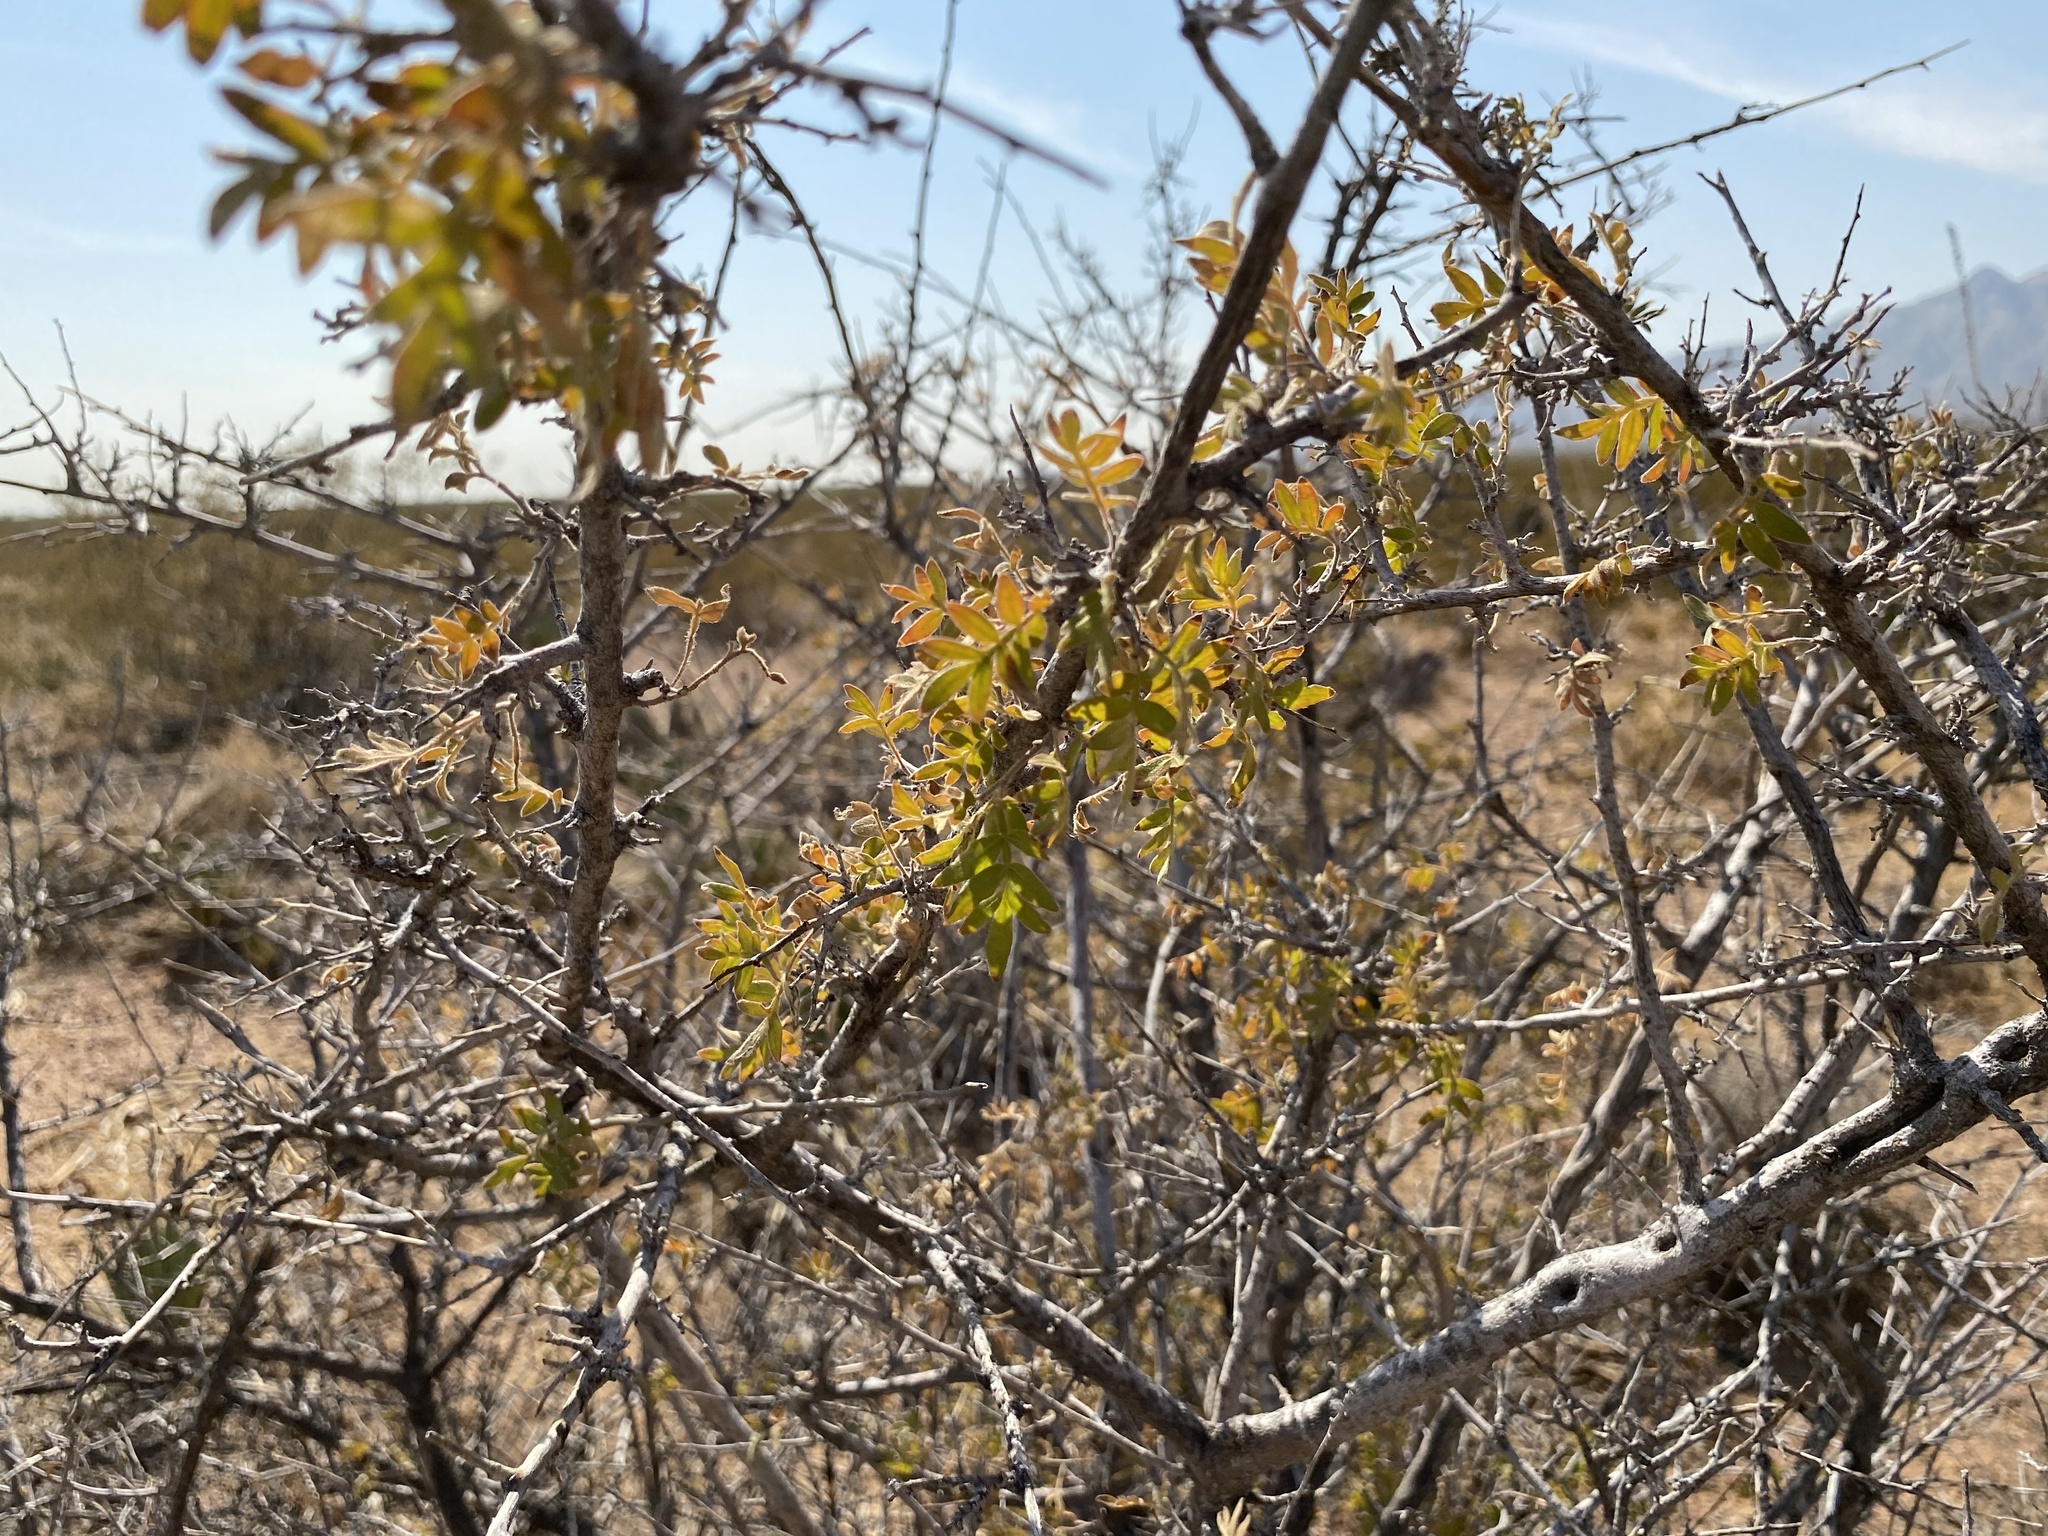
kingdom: Plantae
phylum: Tracheophyta
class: Magnoliopsida
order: Sapindales
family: Anacardiaceae
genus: Rhus
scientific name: Rhus microphylla
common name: Desert sumac
